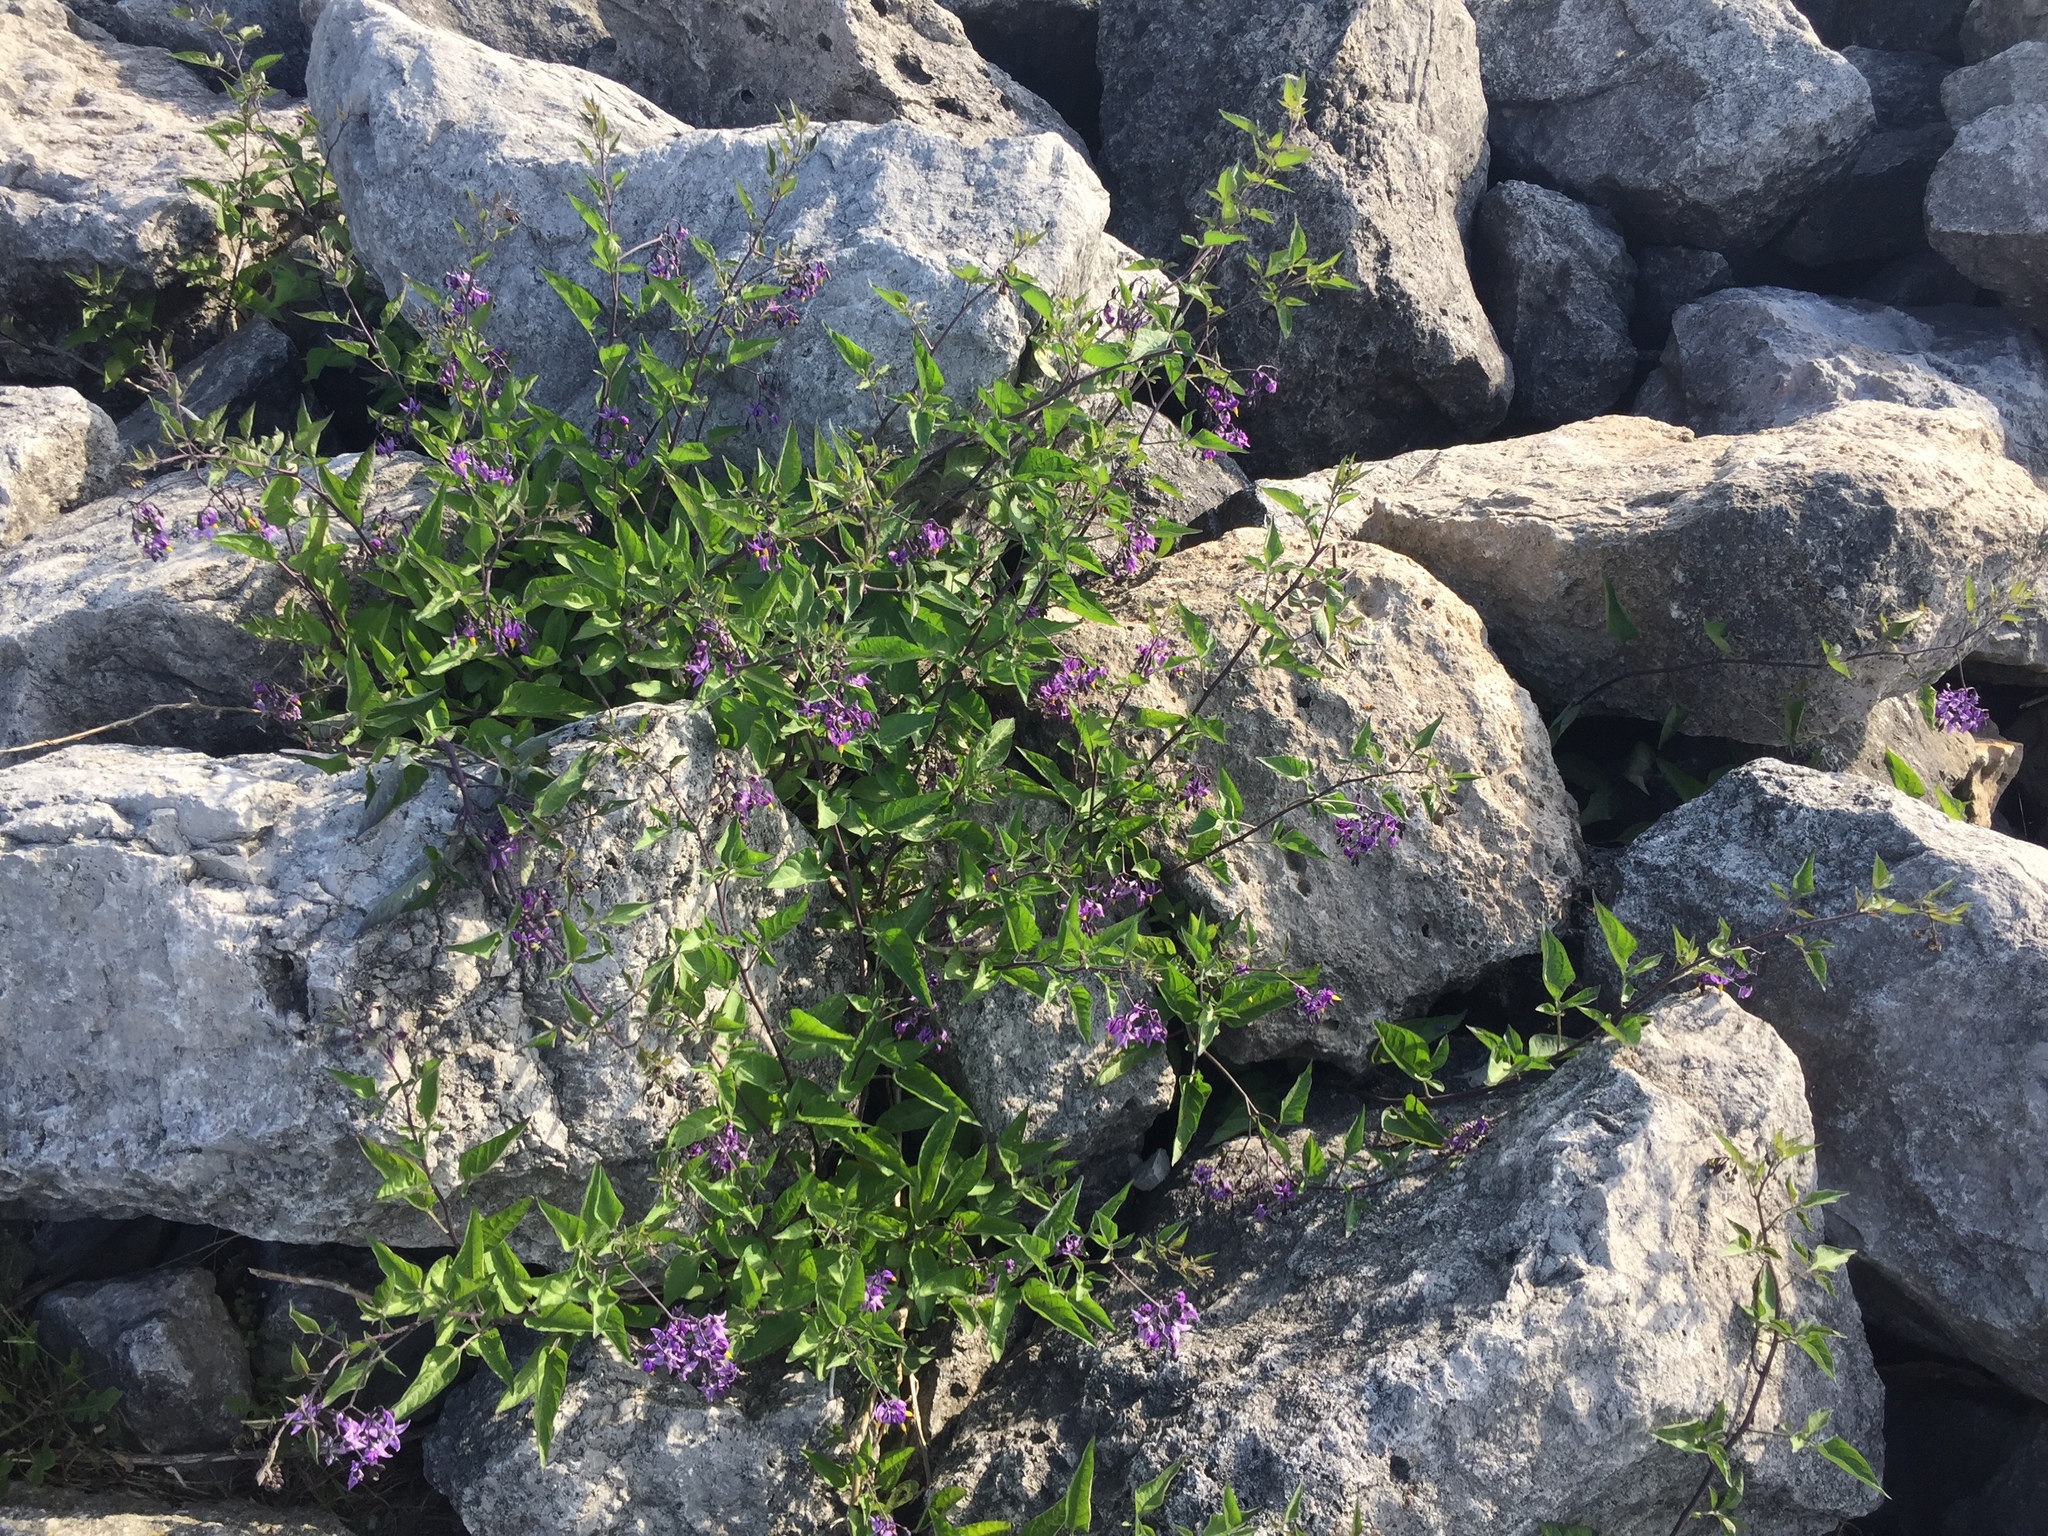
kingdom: Plantae
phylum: Tracheophyta
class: Magnoliopsida
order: Solanales
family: Solanaceae
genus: Solanum
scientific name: Solanum dulcamara
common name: Climbing nightshade
